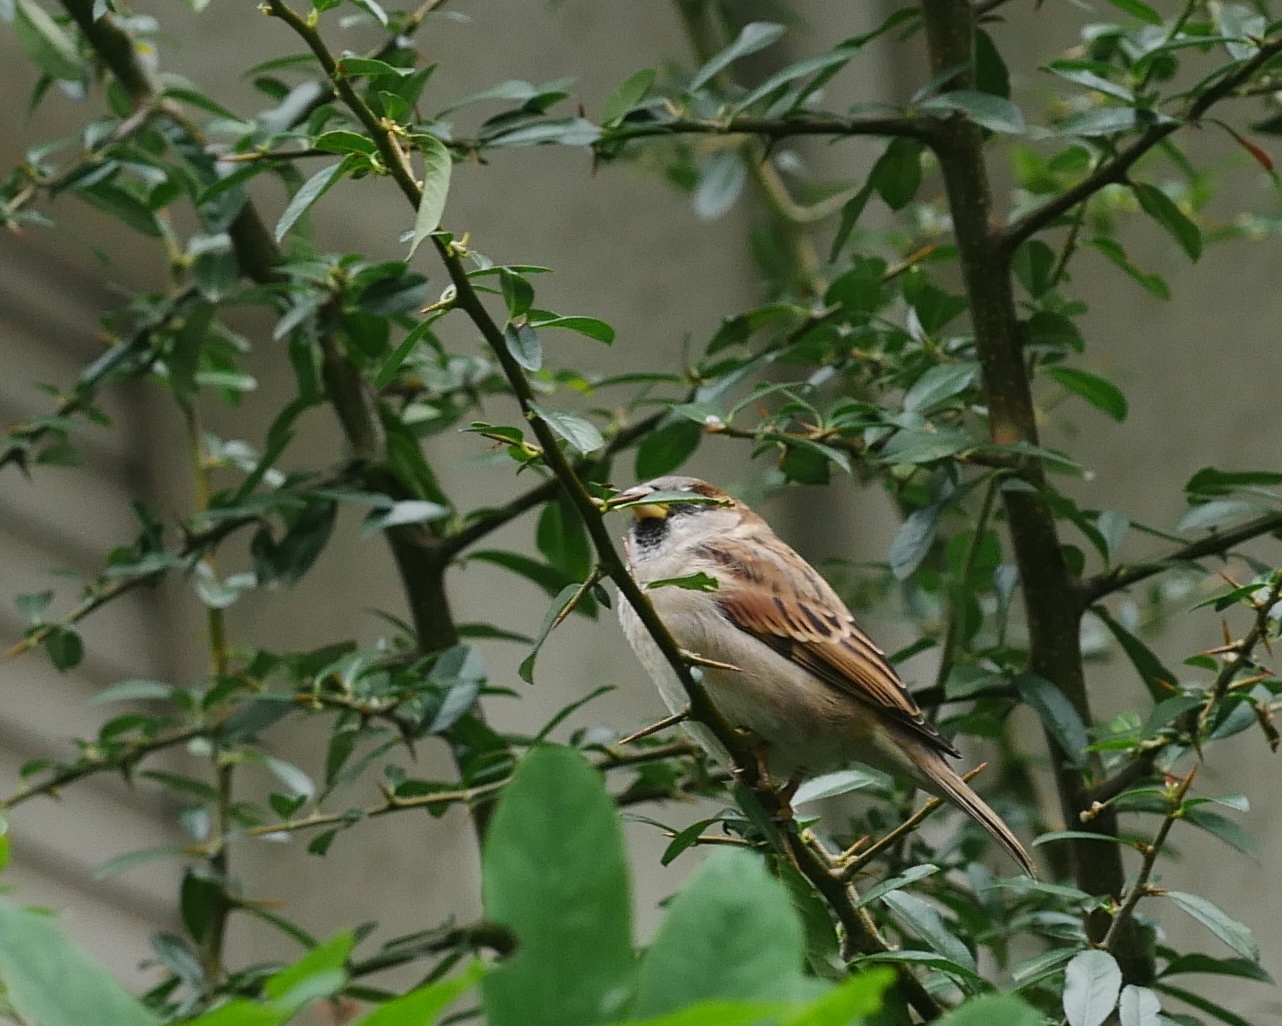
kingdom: Animalia
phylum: Chordata
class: Aves
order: Passeriformes
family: Passeridae
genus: Passer
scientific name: Passer domesticus
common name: House sparrow
